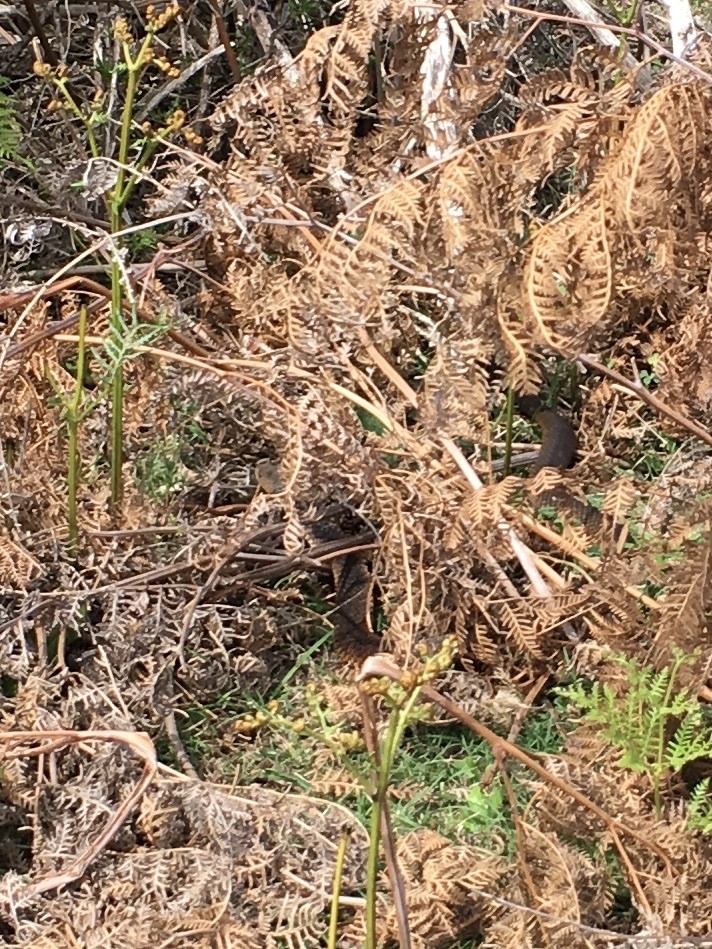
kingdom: Animalia
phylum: Chordata
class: Squamata
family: Elapidae
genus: Austrelaps
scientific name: Austrelaps superbus
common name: Copperhead snake
